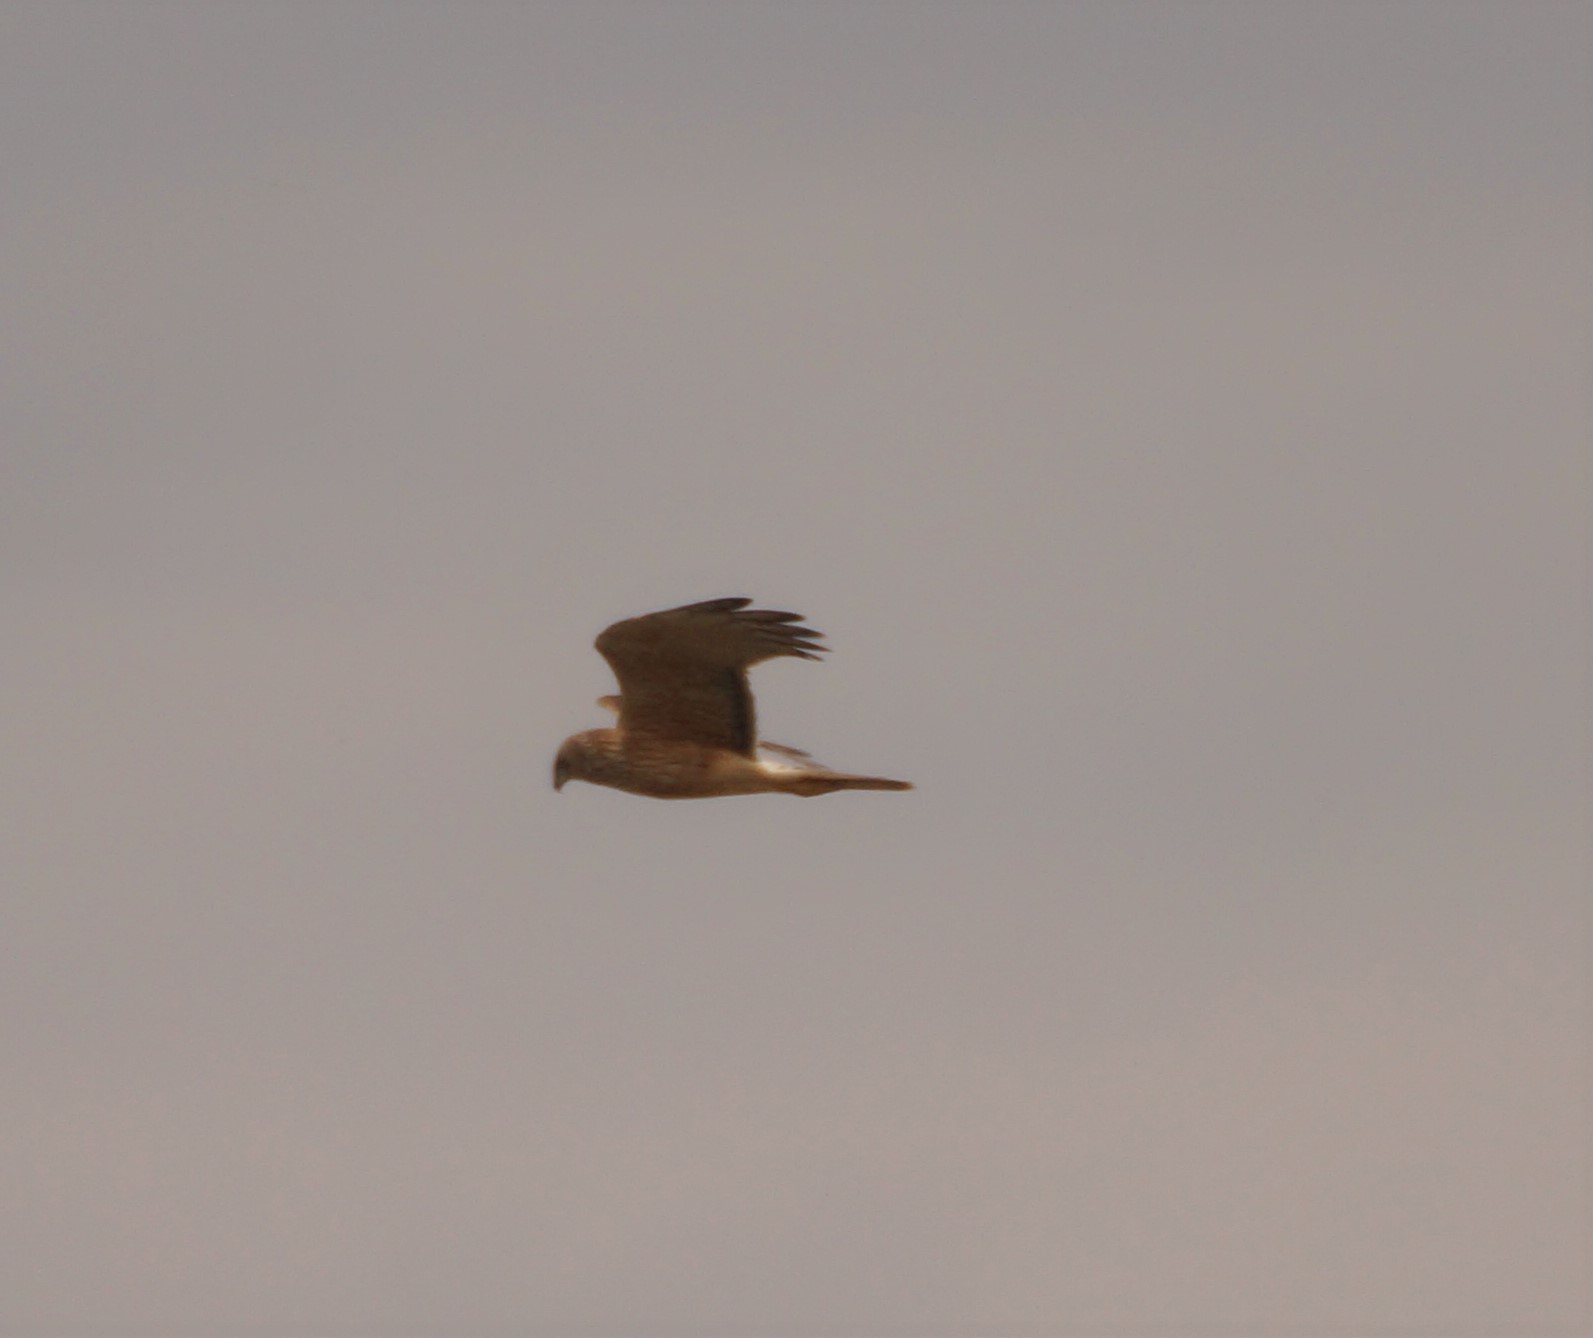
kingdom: Animalia
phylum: Chordata
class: Aves
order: Accipitriformes
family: Accipitridae
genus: Circus
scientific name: Circus approximans
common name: Swamp harrier
